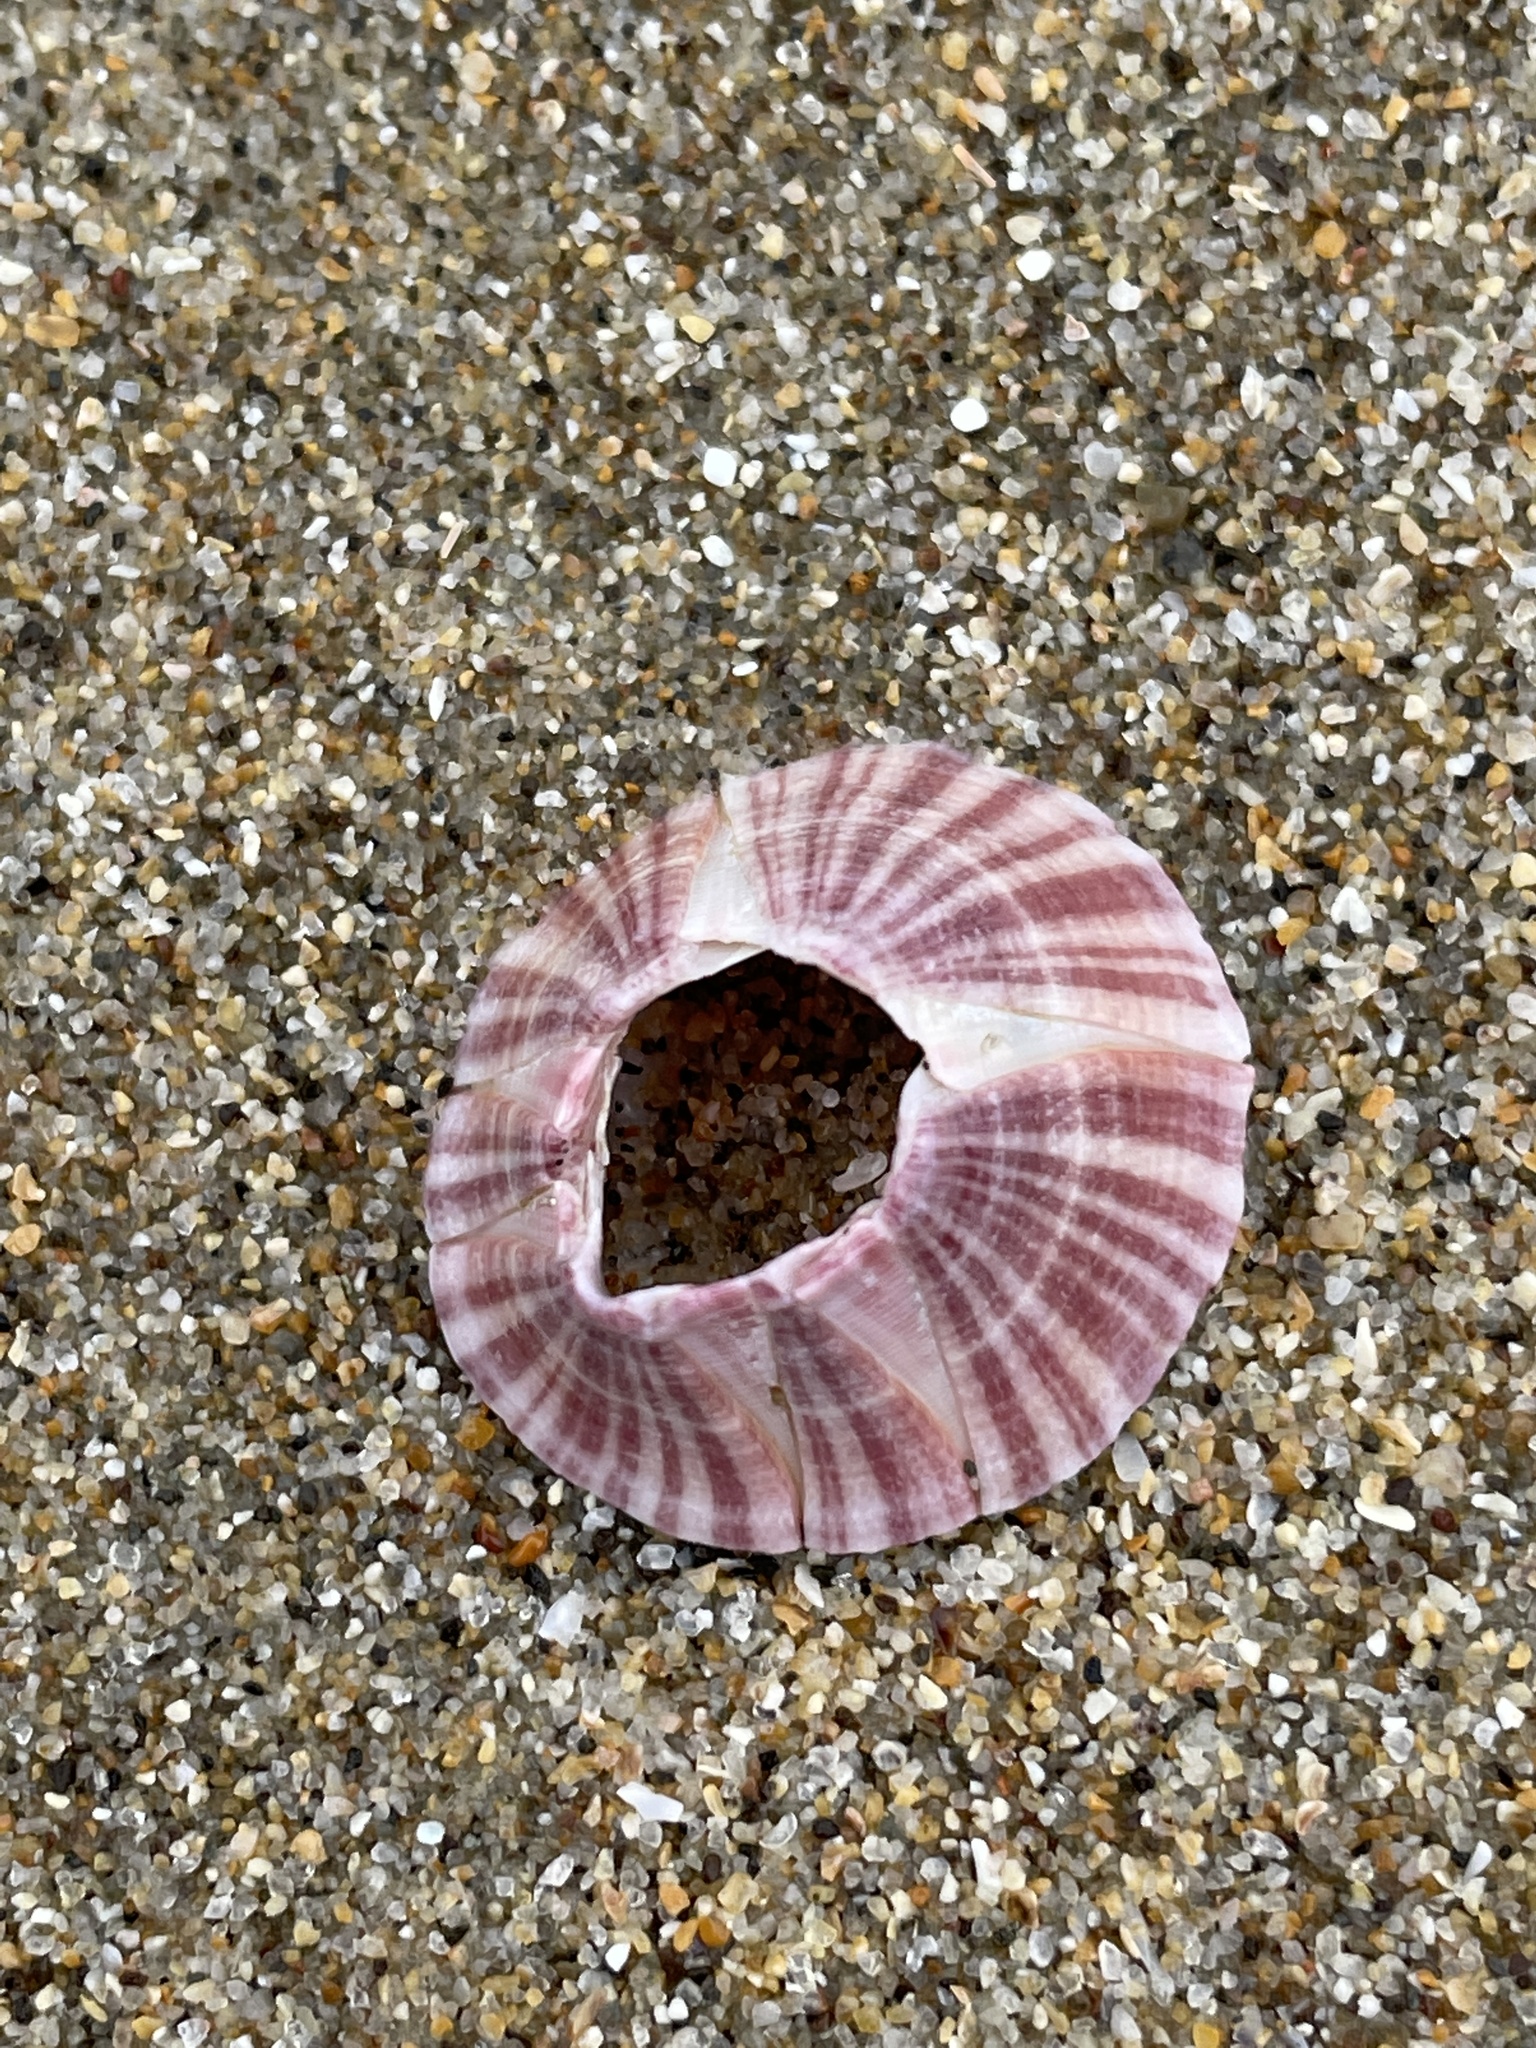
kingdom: Animalia
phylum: Arthropoda
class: Maxillopoda
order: Sessilia
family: Balanidae
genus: Paraconcavus
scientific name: Paraconcavus pacificus
